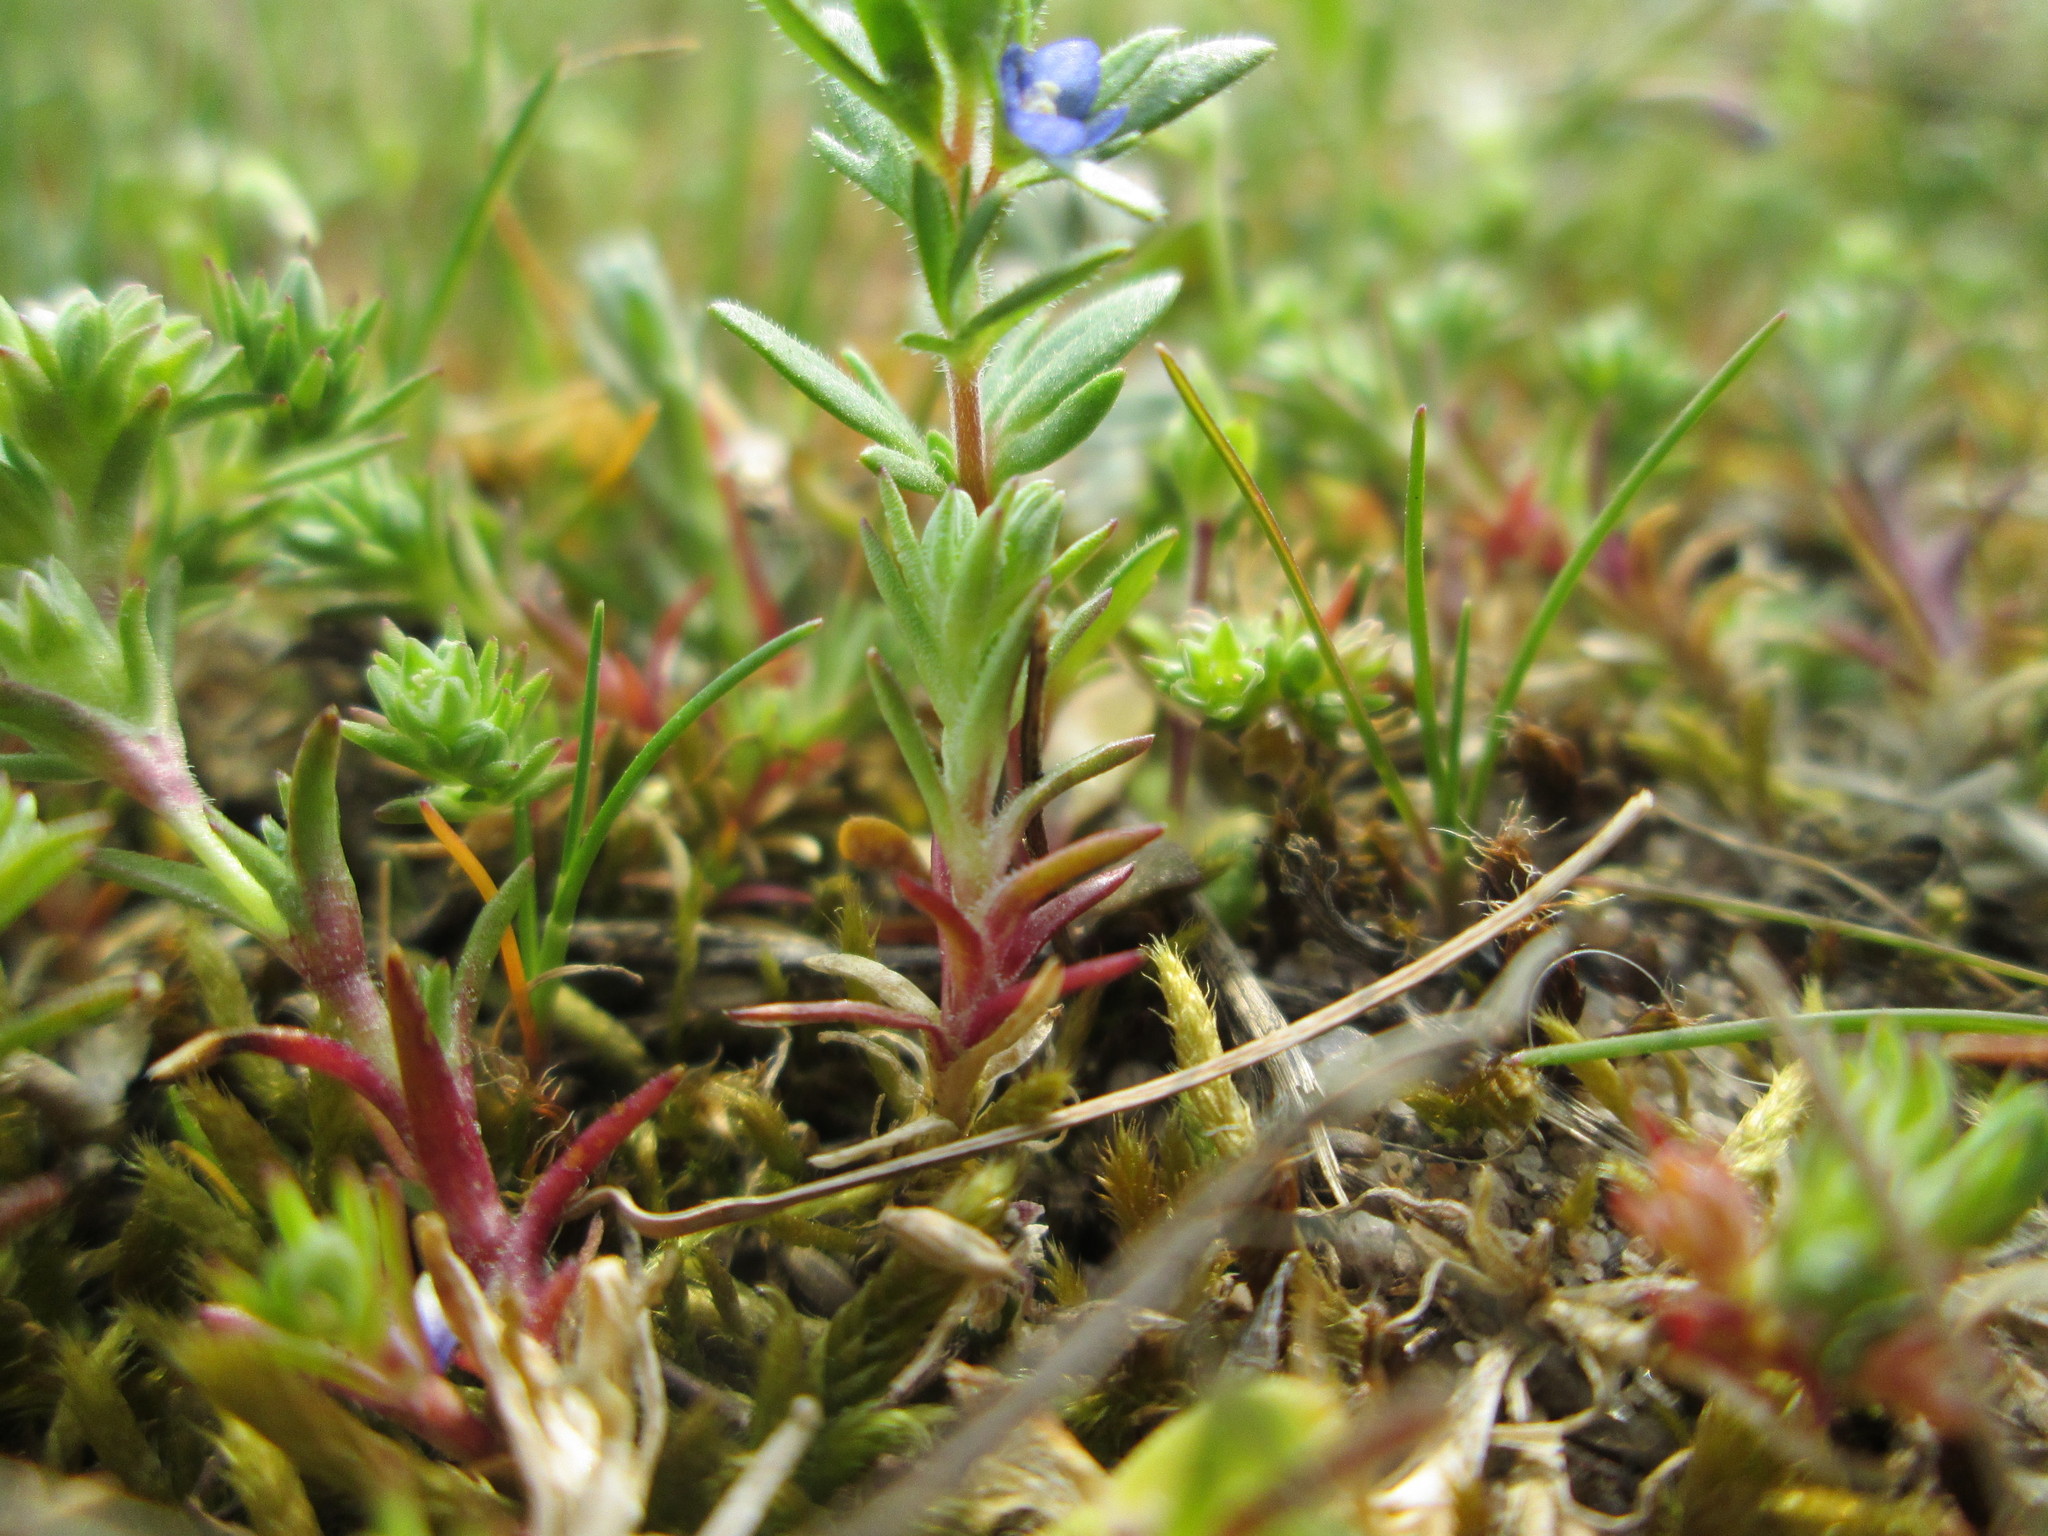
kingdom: Plantae
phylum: Tracheophyta
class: Magnoliopsida
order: Lamiales
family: Plantaginaceae
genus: Veronica
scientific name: Veronica verna
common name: Spring speedwell
